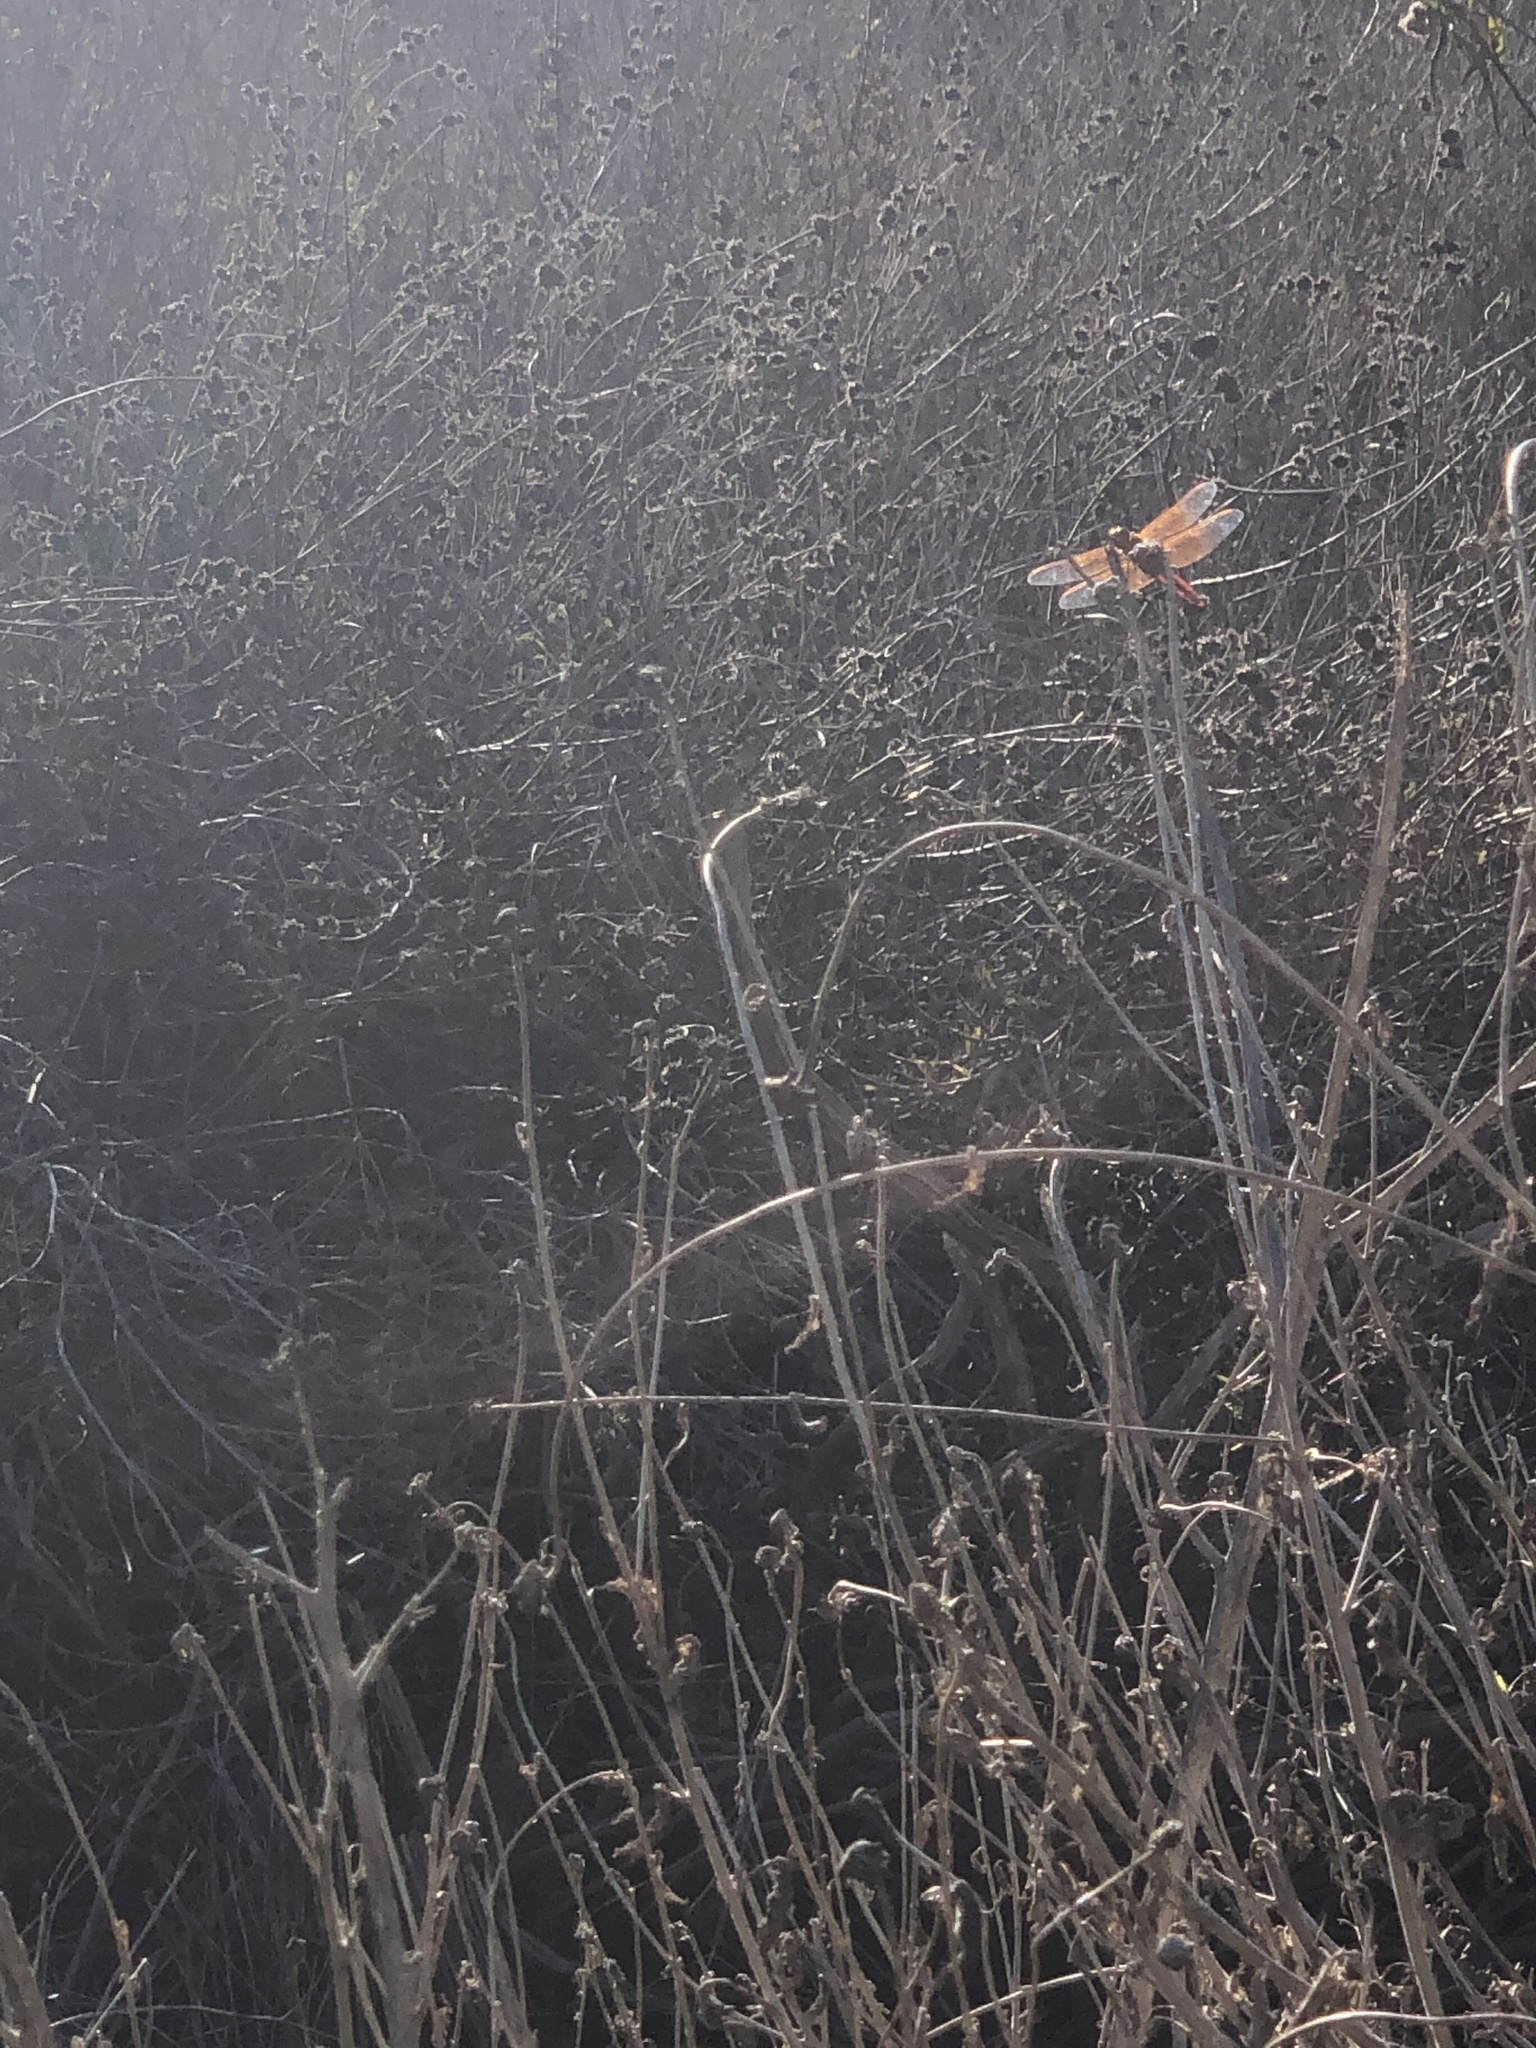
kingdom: Animalia
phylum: Arthropoda
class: Insecta
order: Odonata
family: Libellulidae
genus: Libellula
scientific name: Libellula saturata
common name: Flame skimmer
